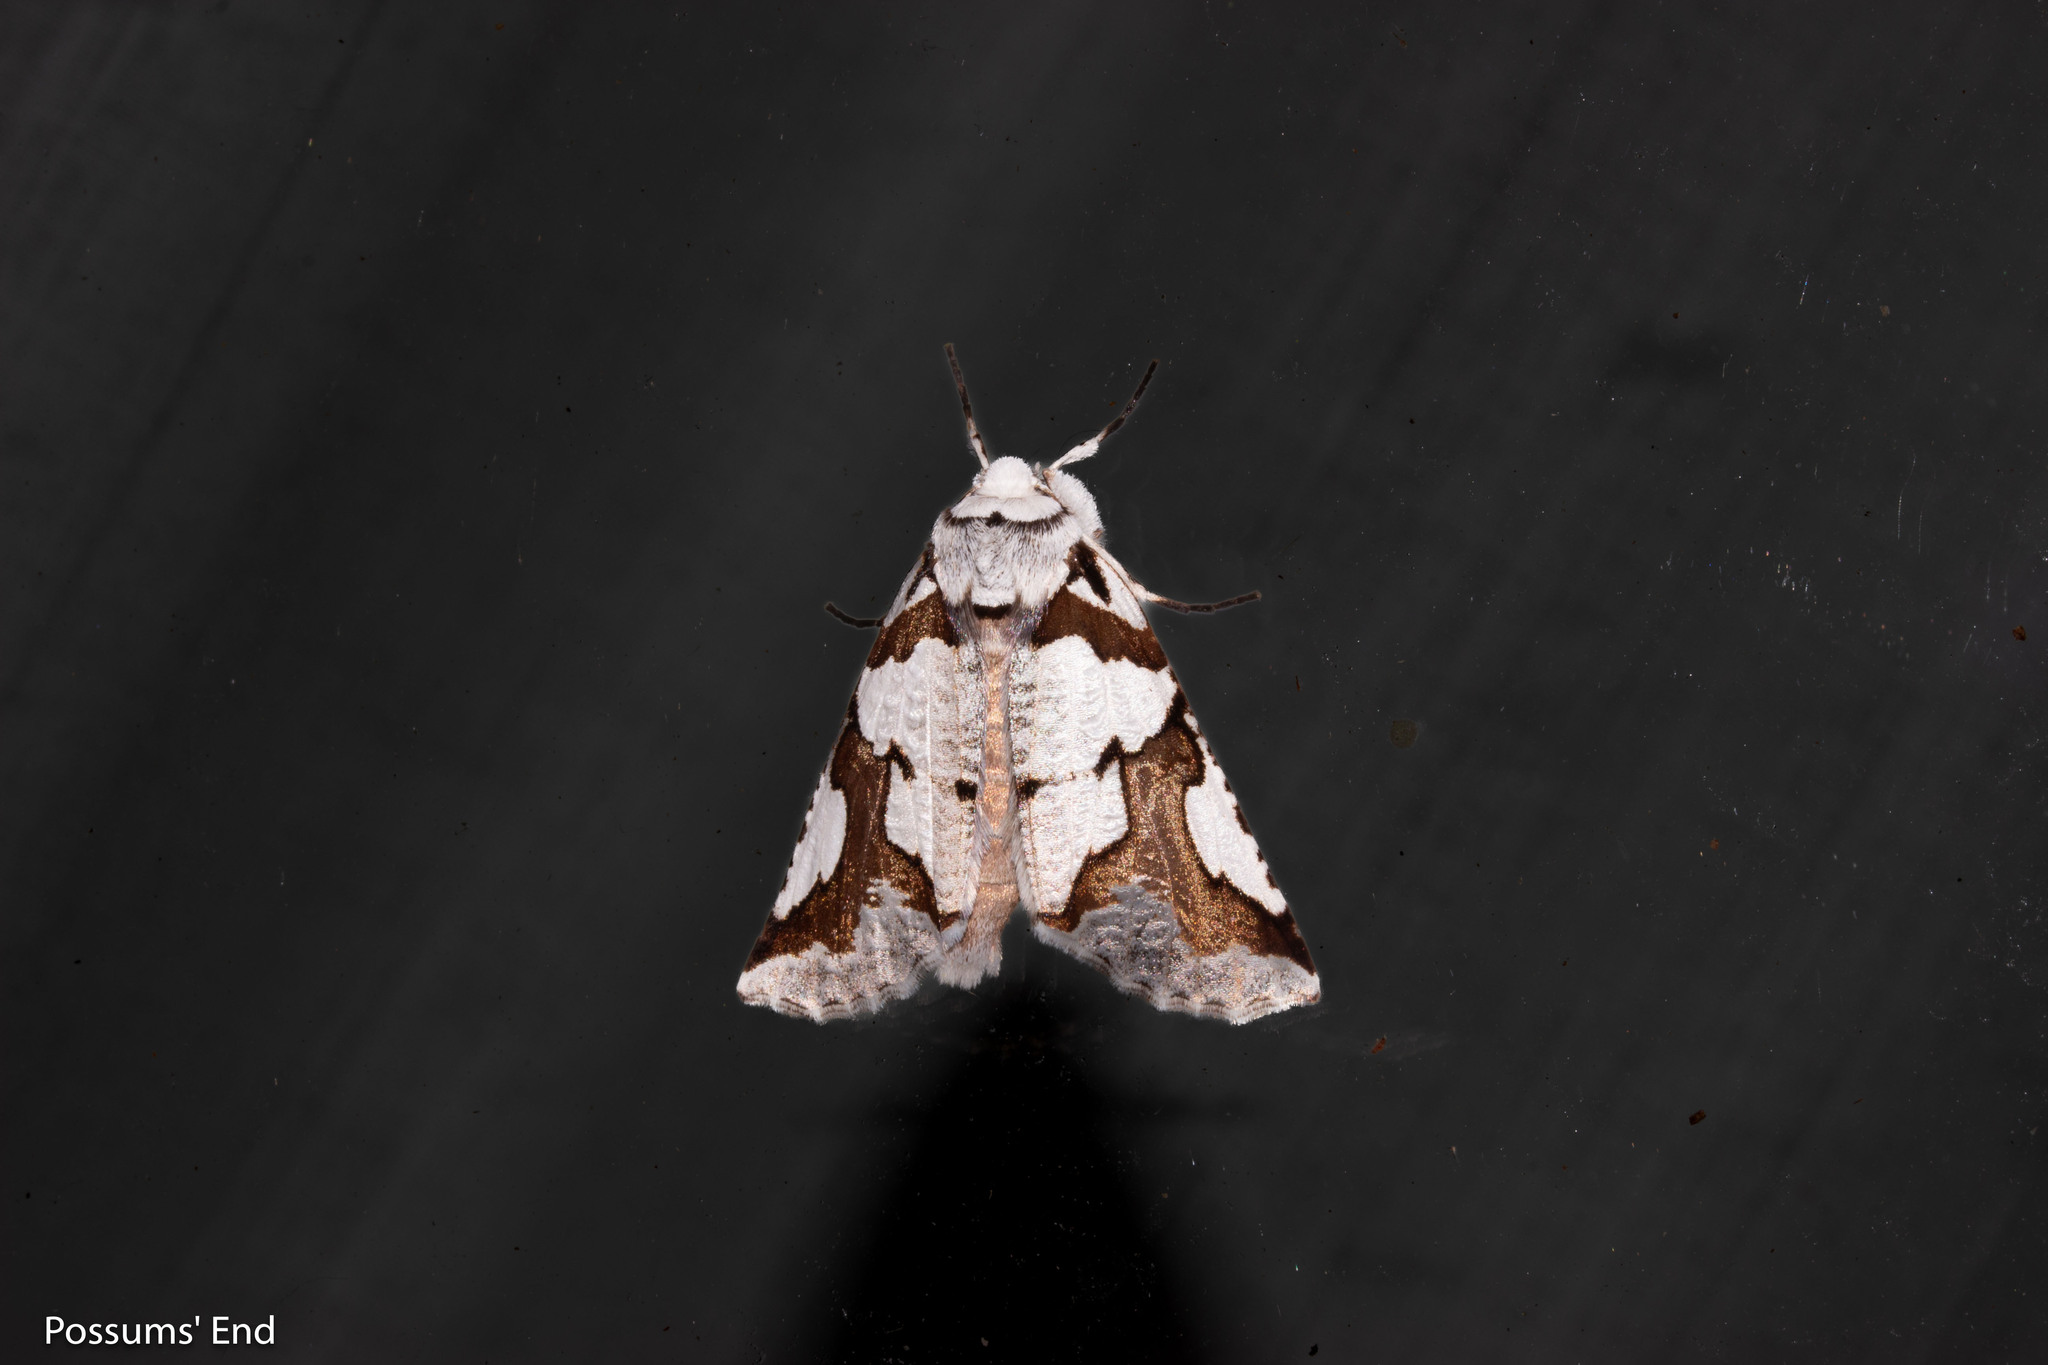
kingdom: Animalia
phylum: Arthropoda
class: Insecta
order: Lepidoptera
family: Geometridae
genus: Declana
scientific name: Declana
